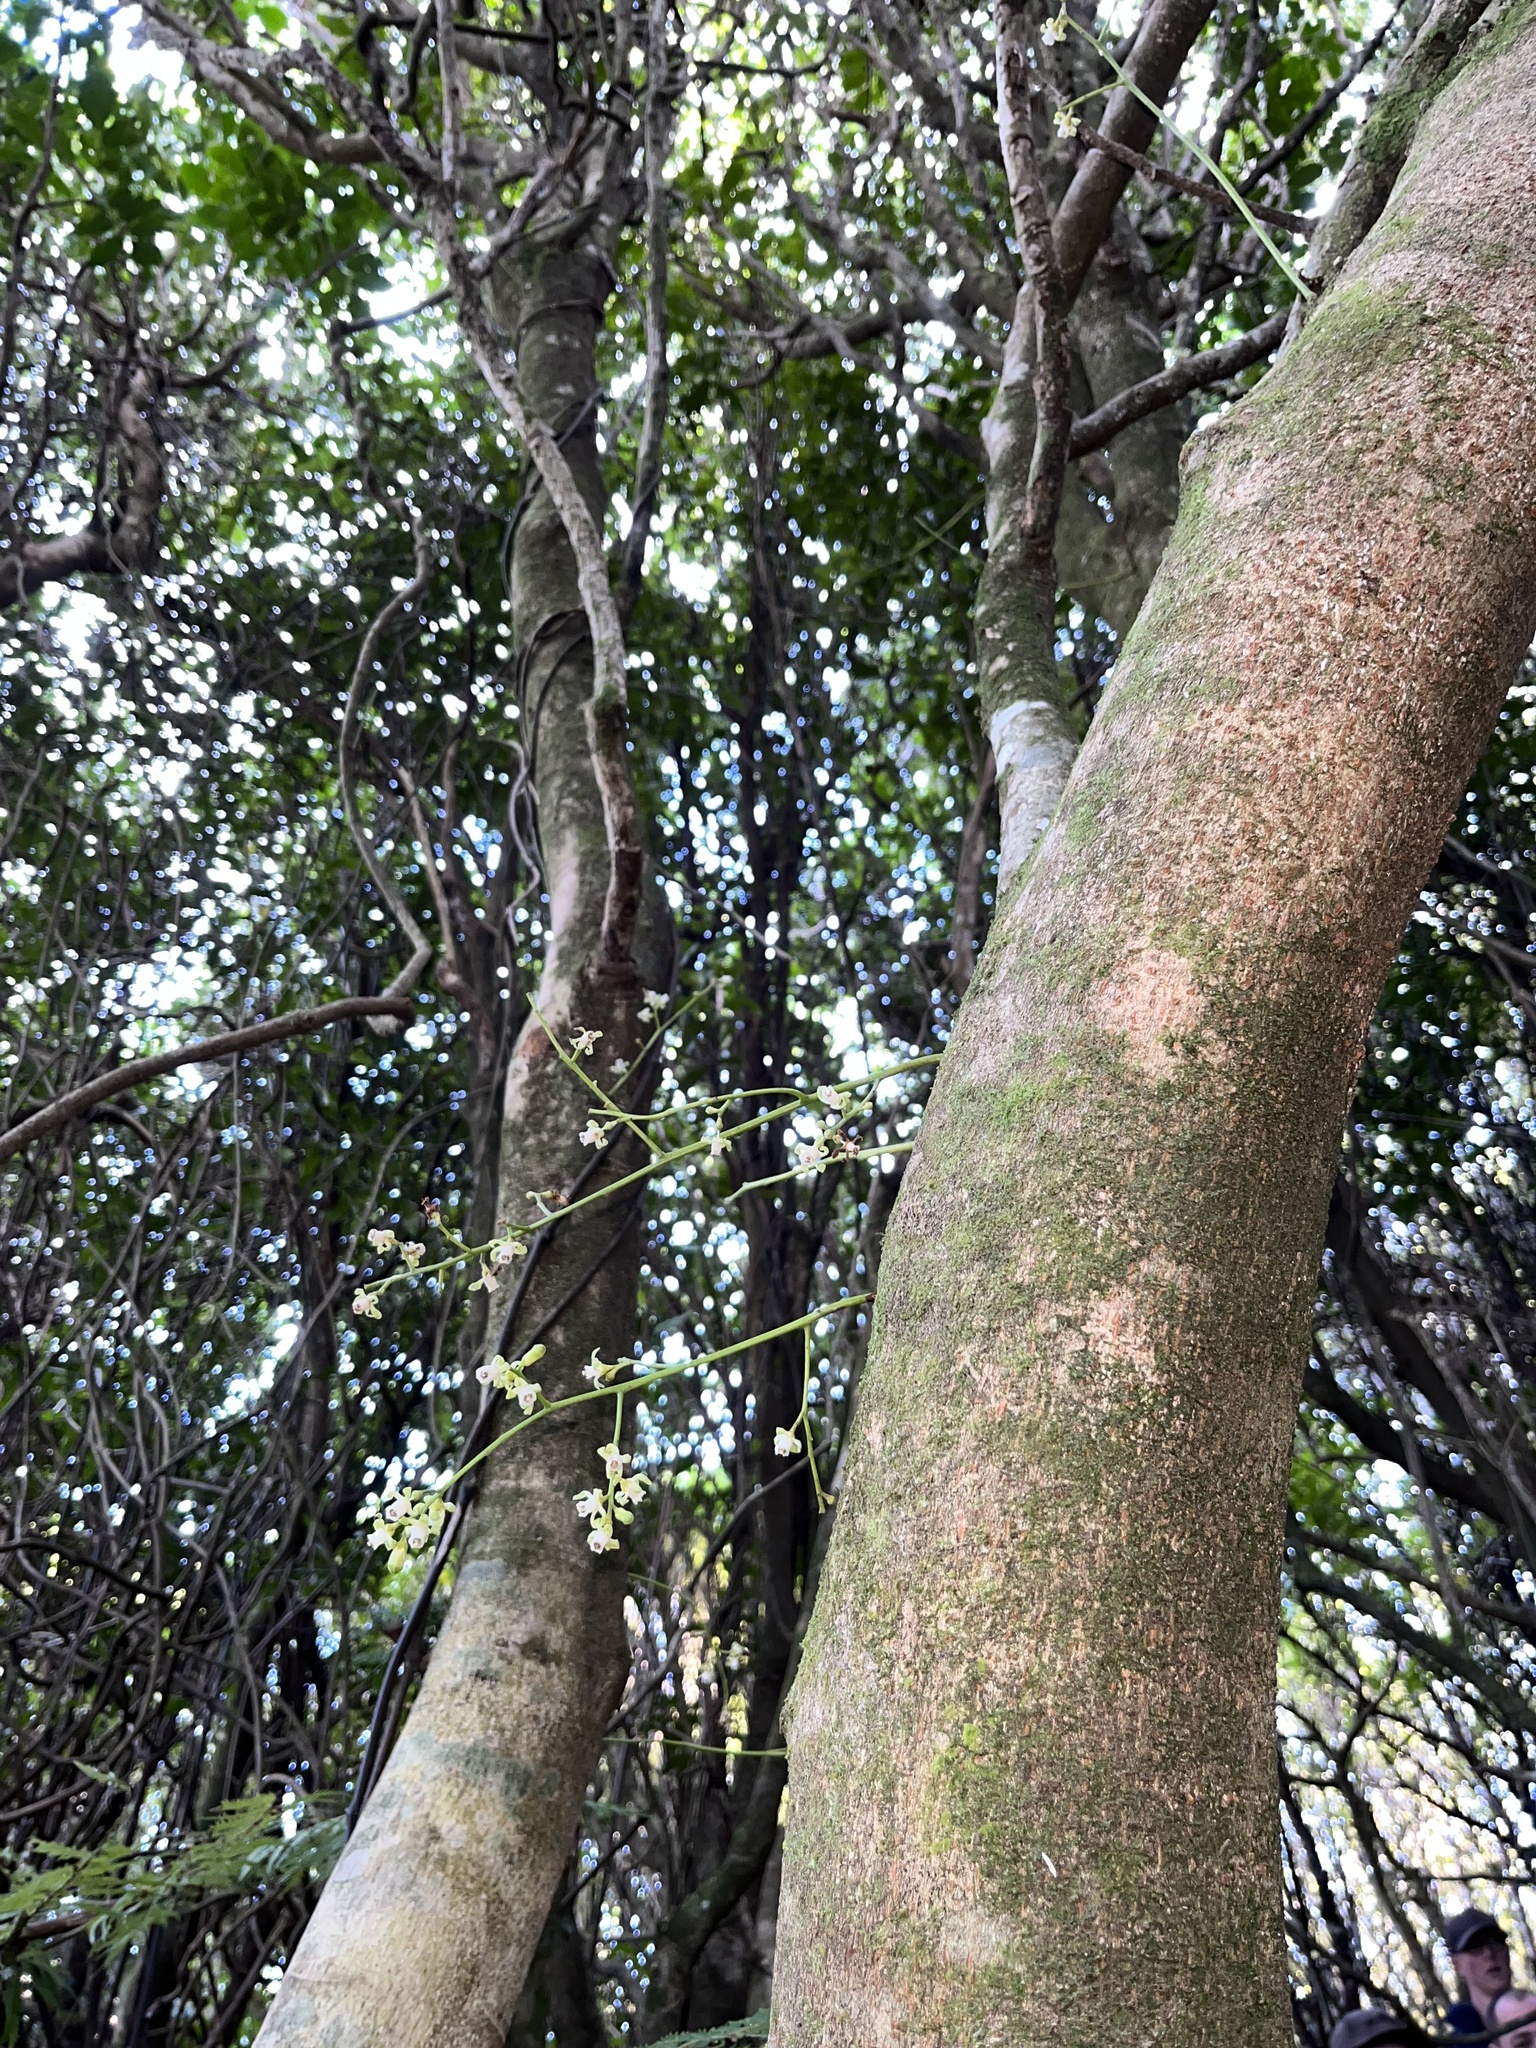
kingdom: Plantae
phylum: Tracheophyta
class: Magnoliopsida
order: Sapindales
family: Meliaceae
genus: Didymocheton
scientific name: Didymocheton spectabilis
